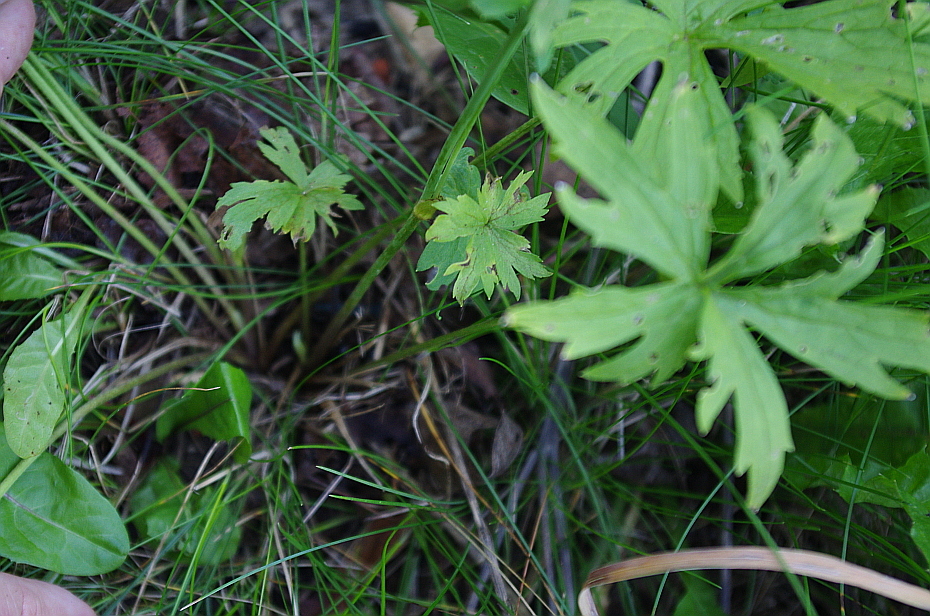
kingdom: Plantae
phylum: Tracheophyta
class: Magnoliopsida
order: Ranunculales
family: Ranunculaceae
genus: Ranunculus
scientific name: Ranunculus acris
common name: Meadow buttercup
